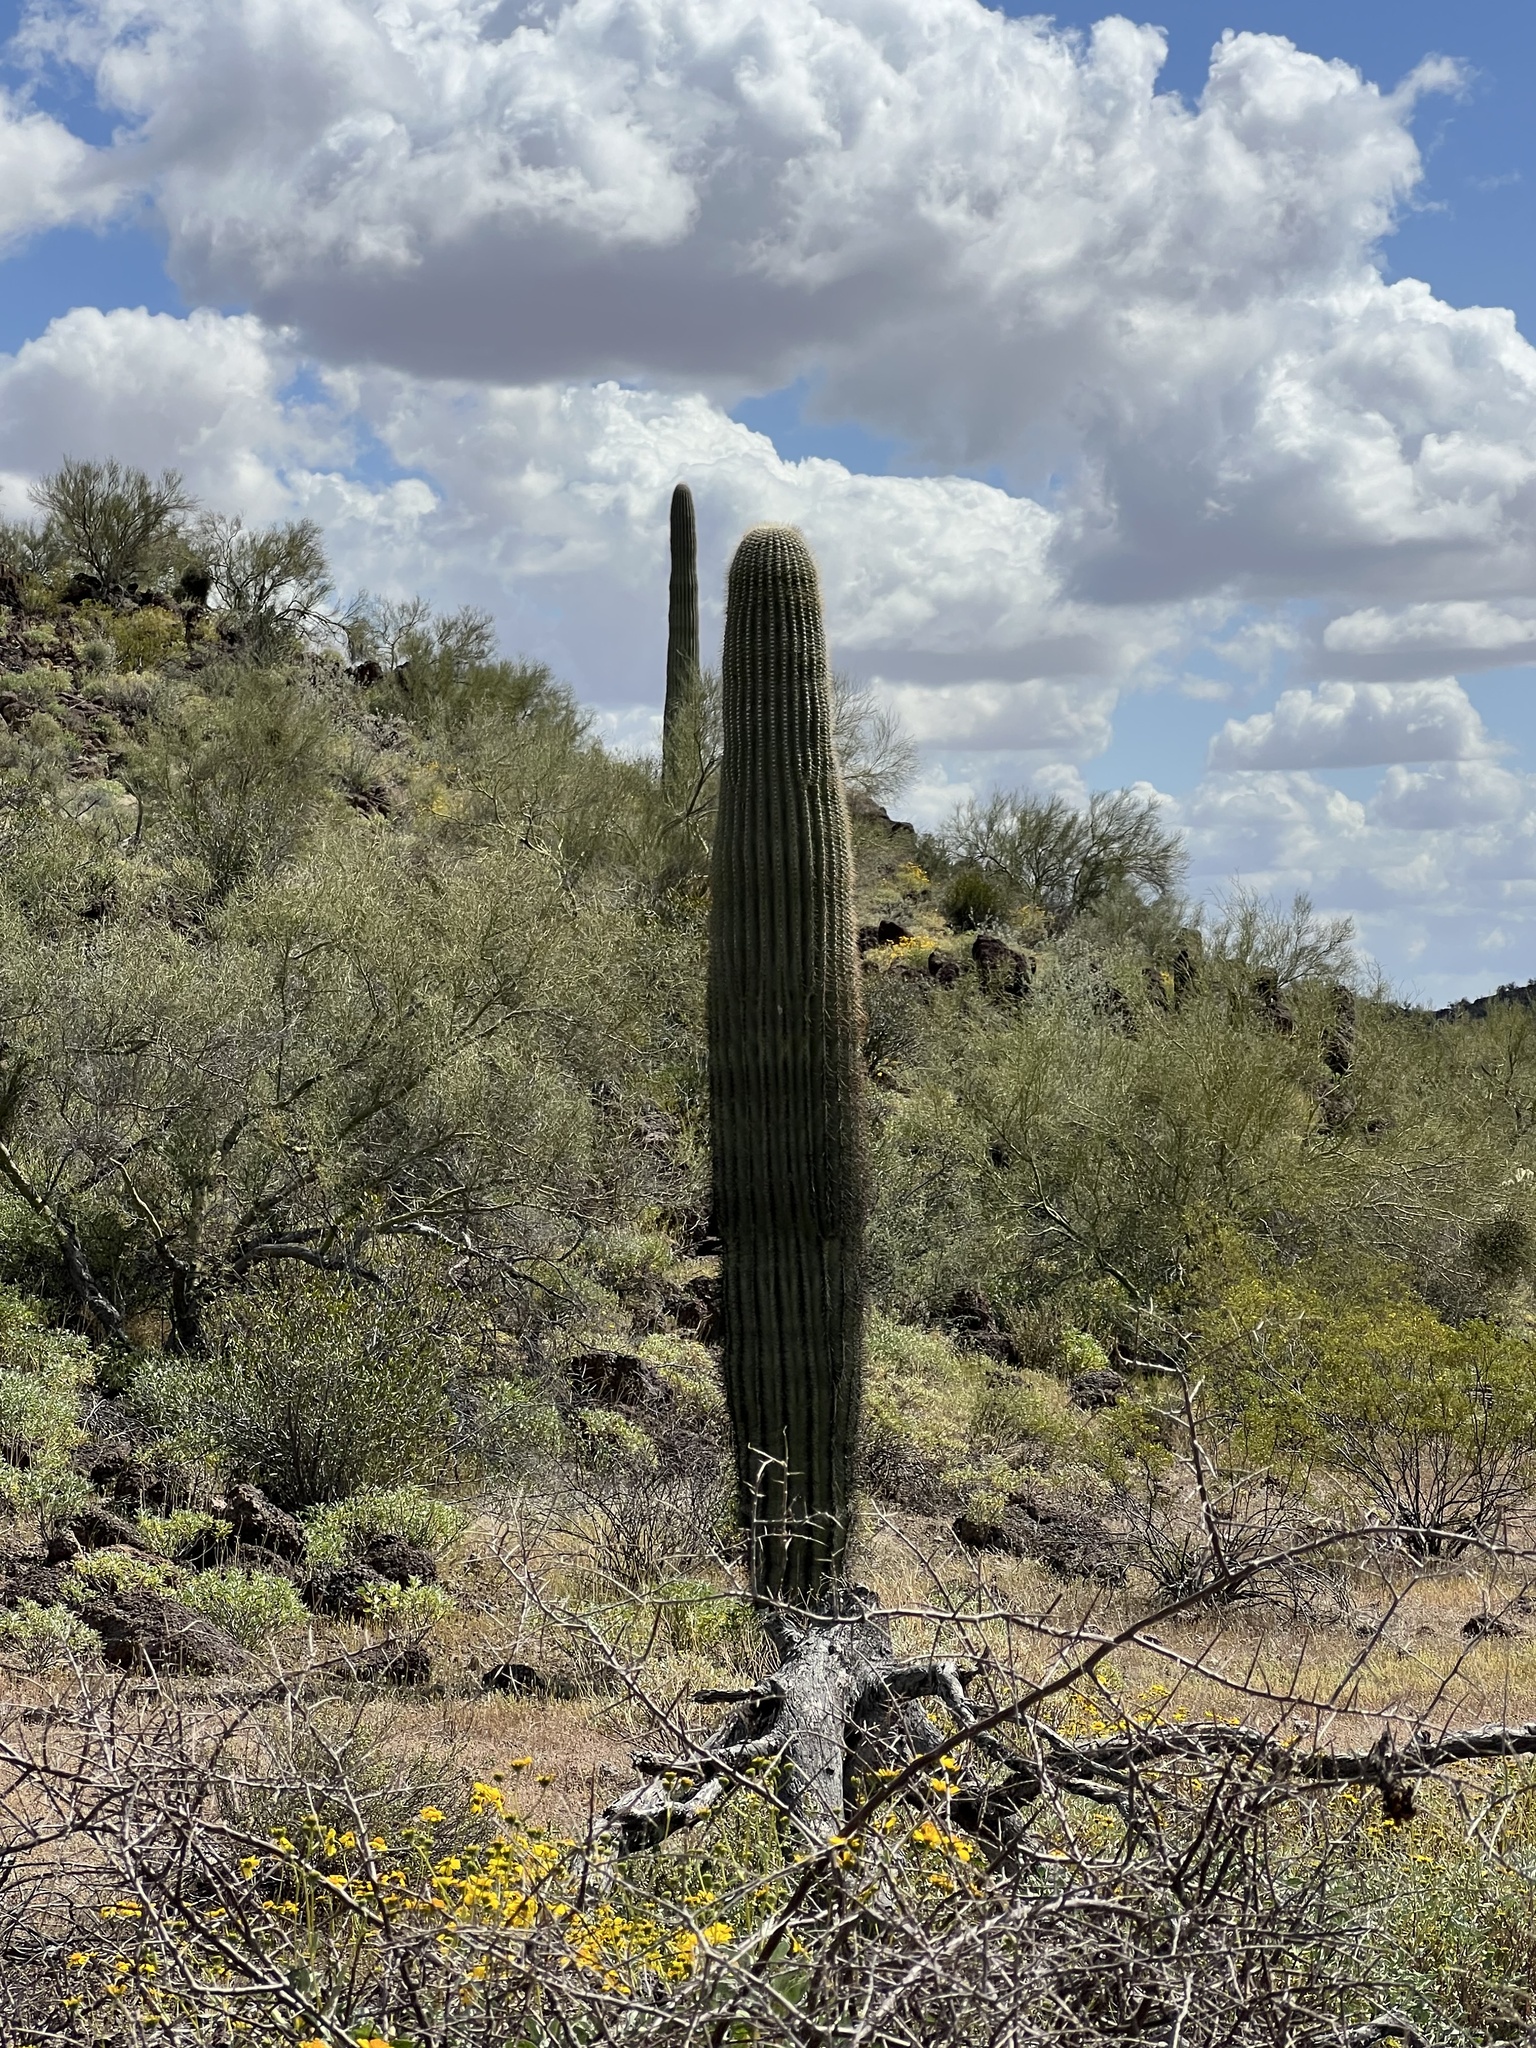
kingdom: Plantae
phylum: Tracheophyta
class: Magnoliopsida
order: Caryophyllales
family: Cactaceae
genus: Carnegiea
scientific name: Carnegiea gigantea
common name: Saguaro
